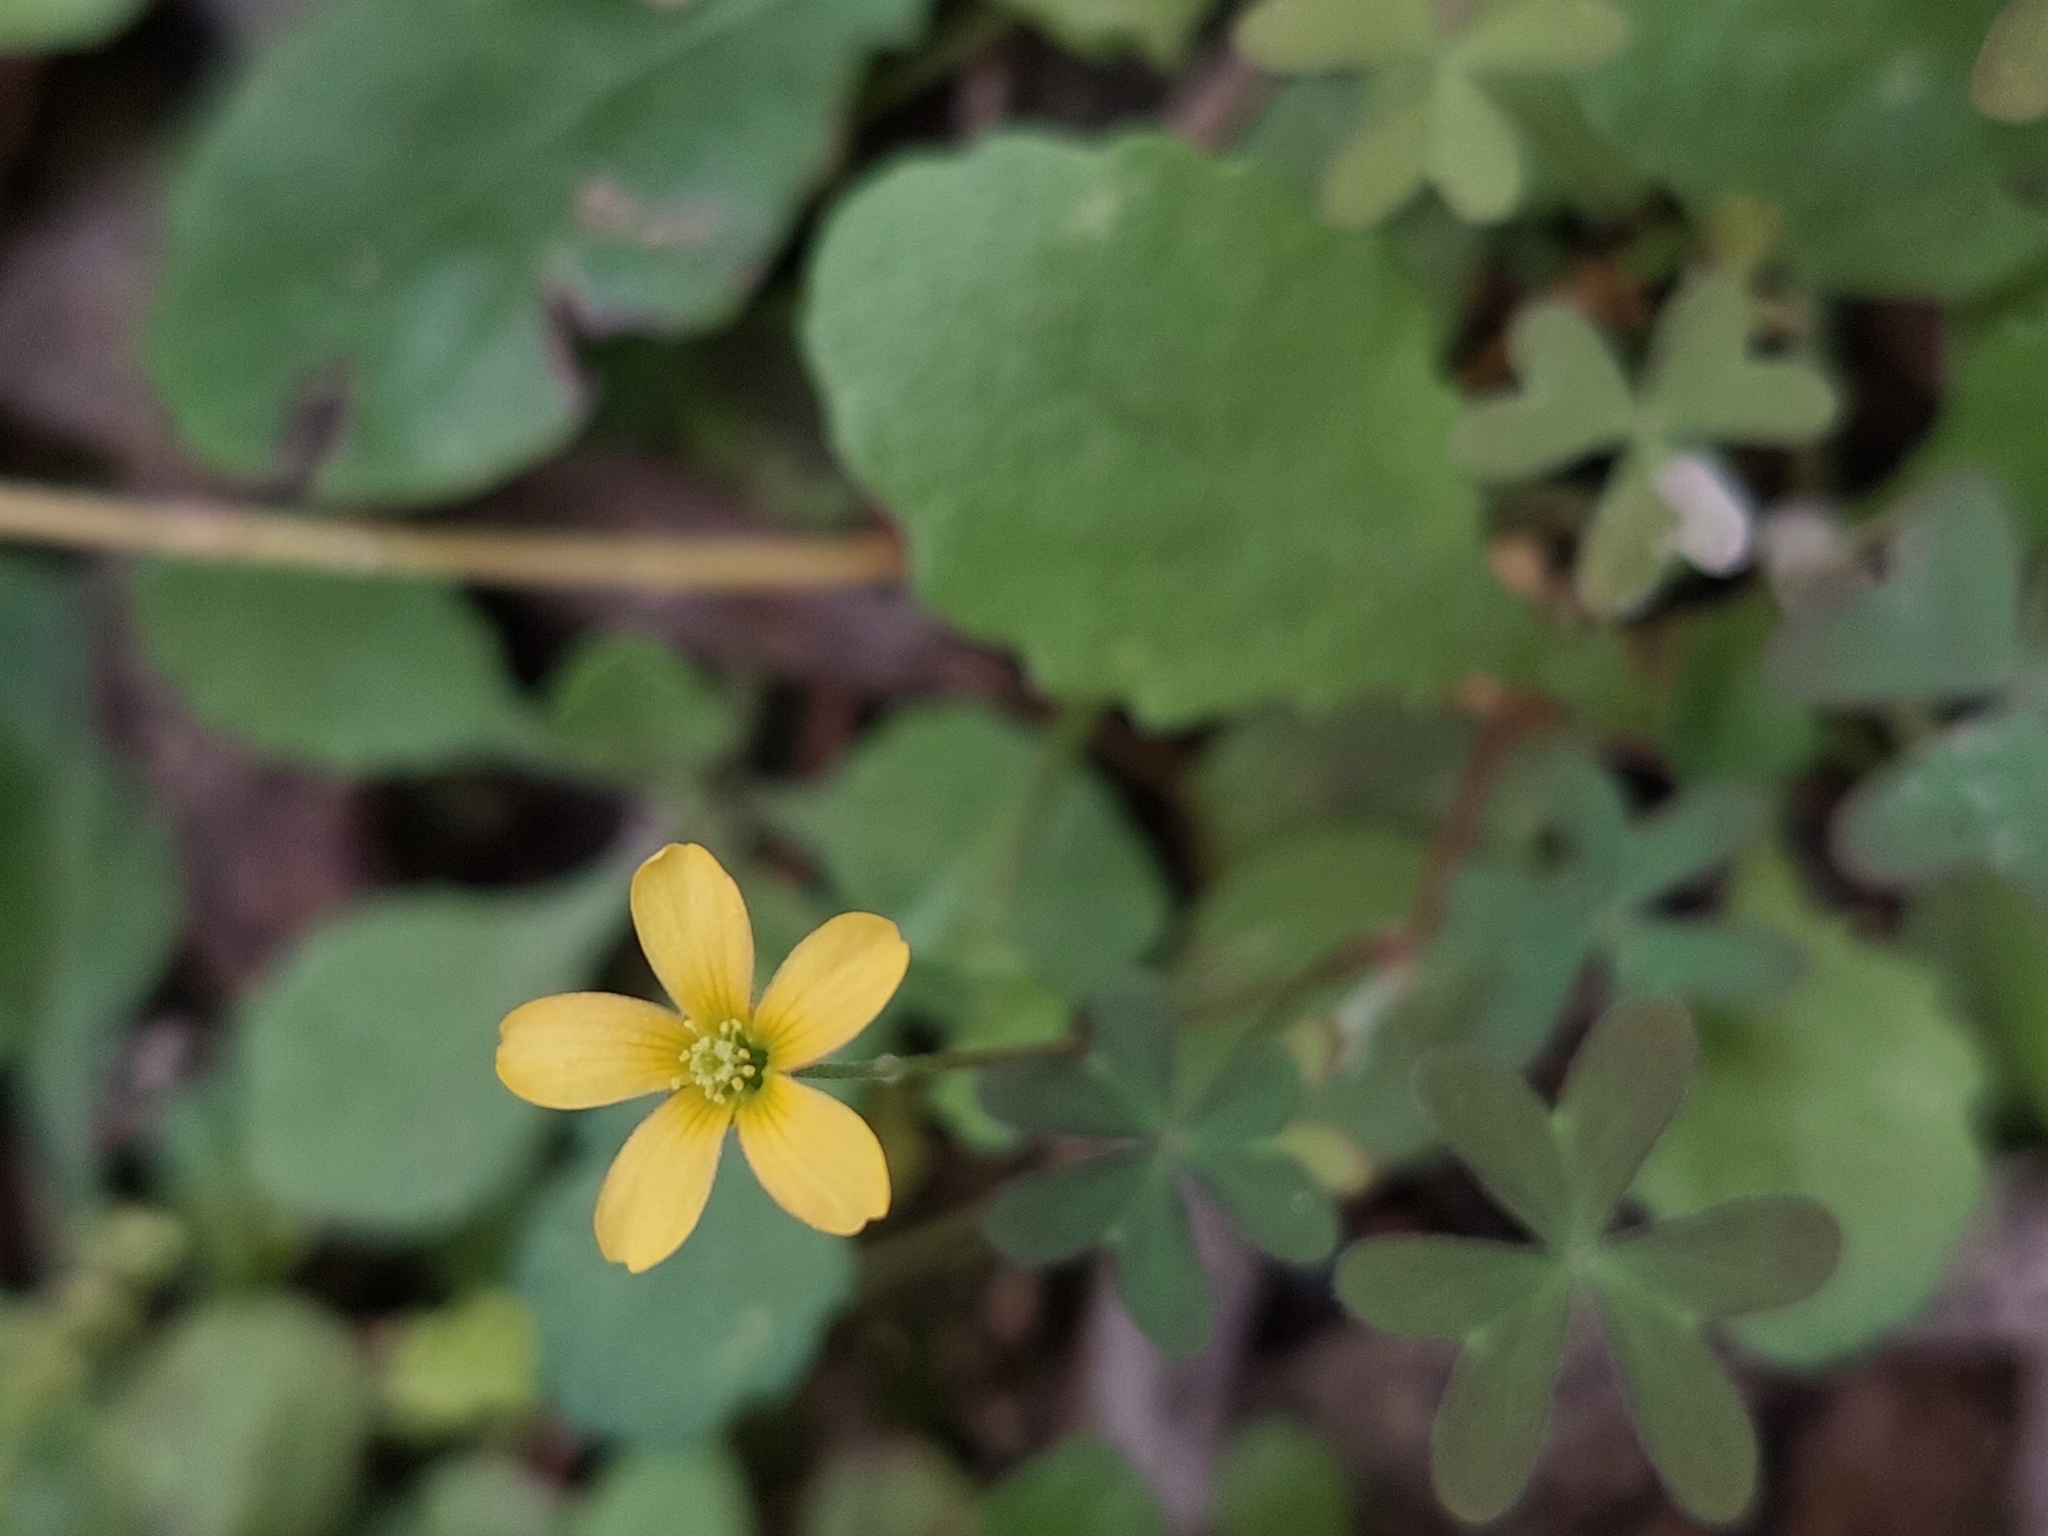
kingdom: Plantae
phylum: Tracheophyta
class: Magnoliopsida
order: Oxalidales
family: Oxalidaceae
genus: Oxalis
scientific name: Oxalis perennans
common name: Woody-rooted yellow-sorrel
